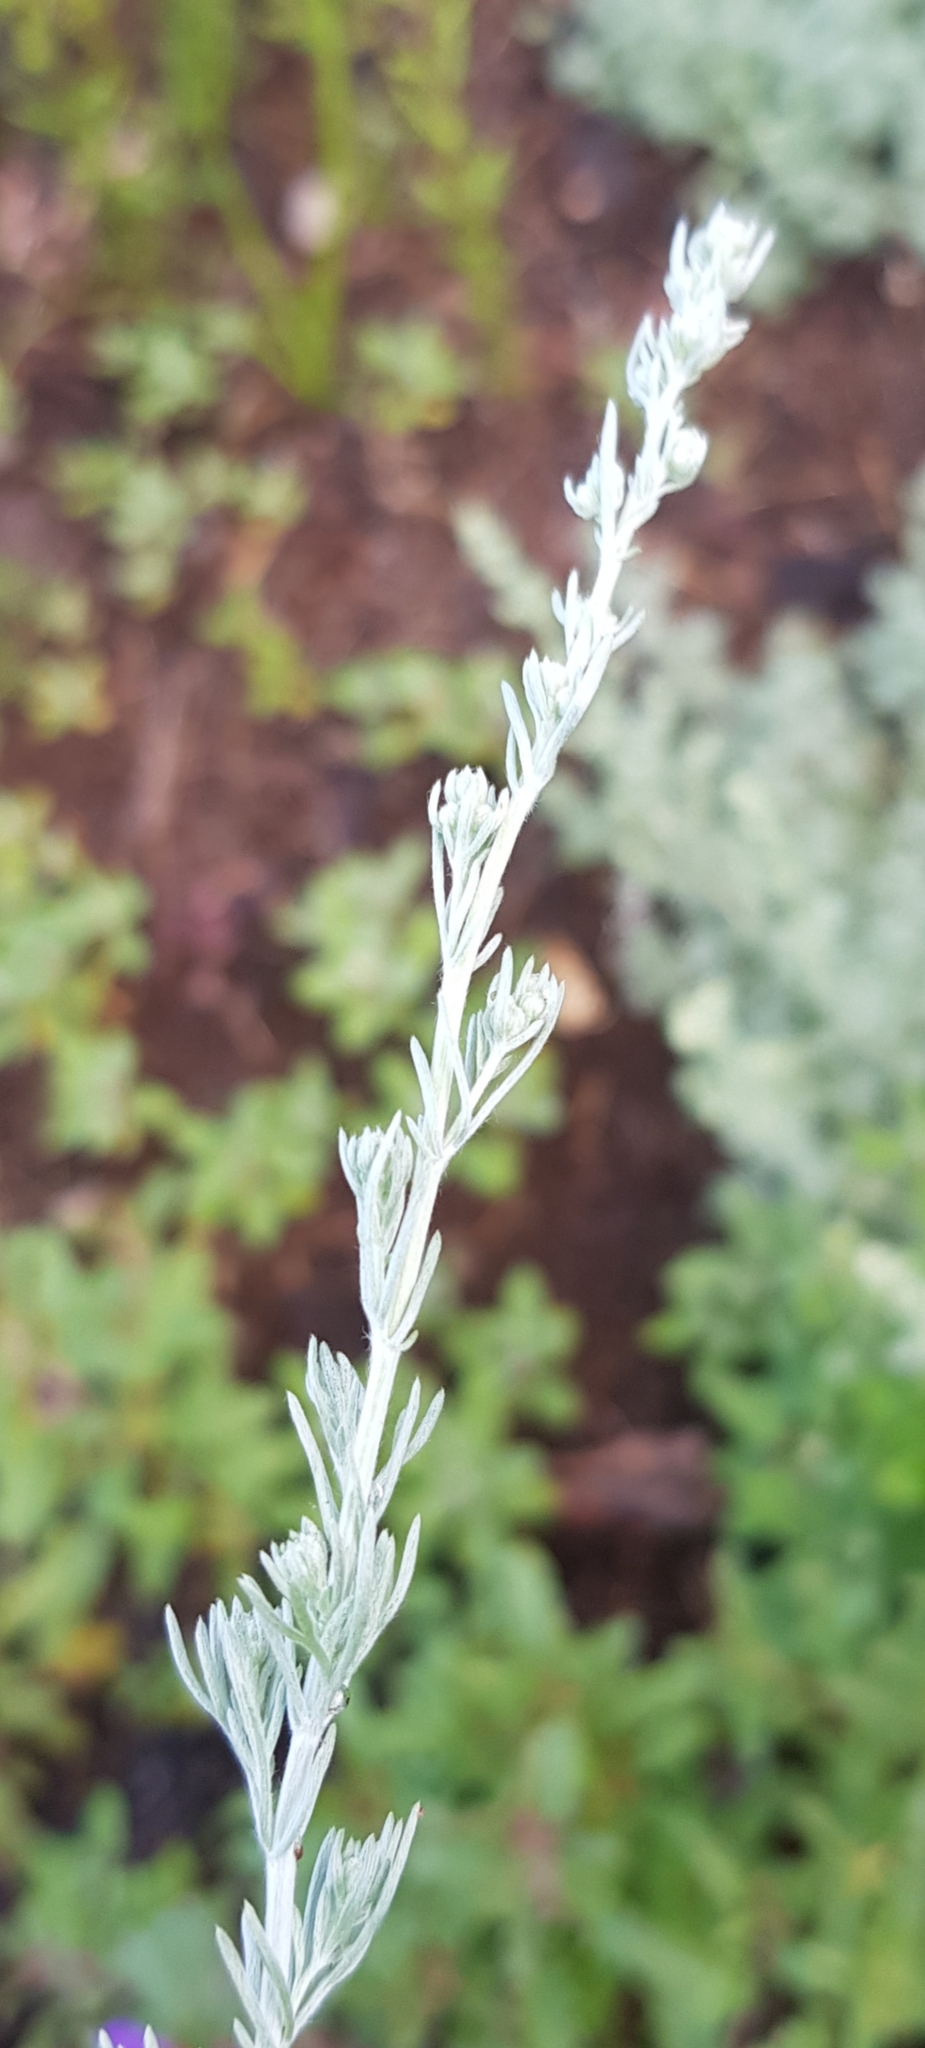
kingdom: Plantae
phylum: Tracheophyta
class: Magnoliopsida
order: Asterales
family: Asteraceae
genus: Artemisia
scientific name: Artemisia frigida
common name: Prairie sagewort
